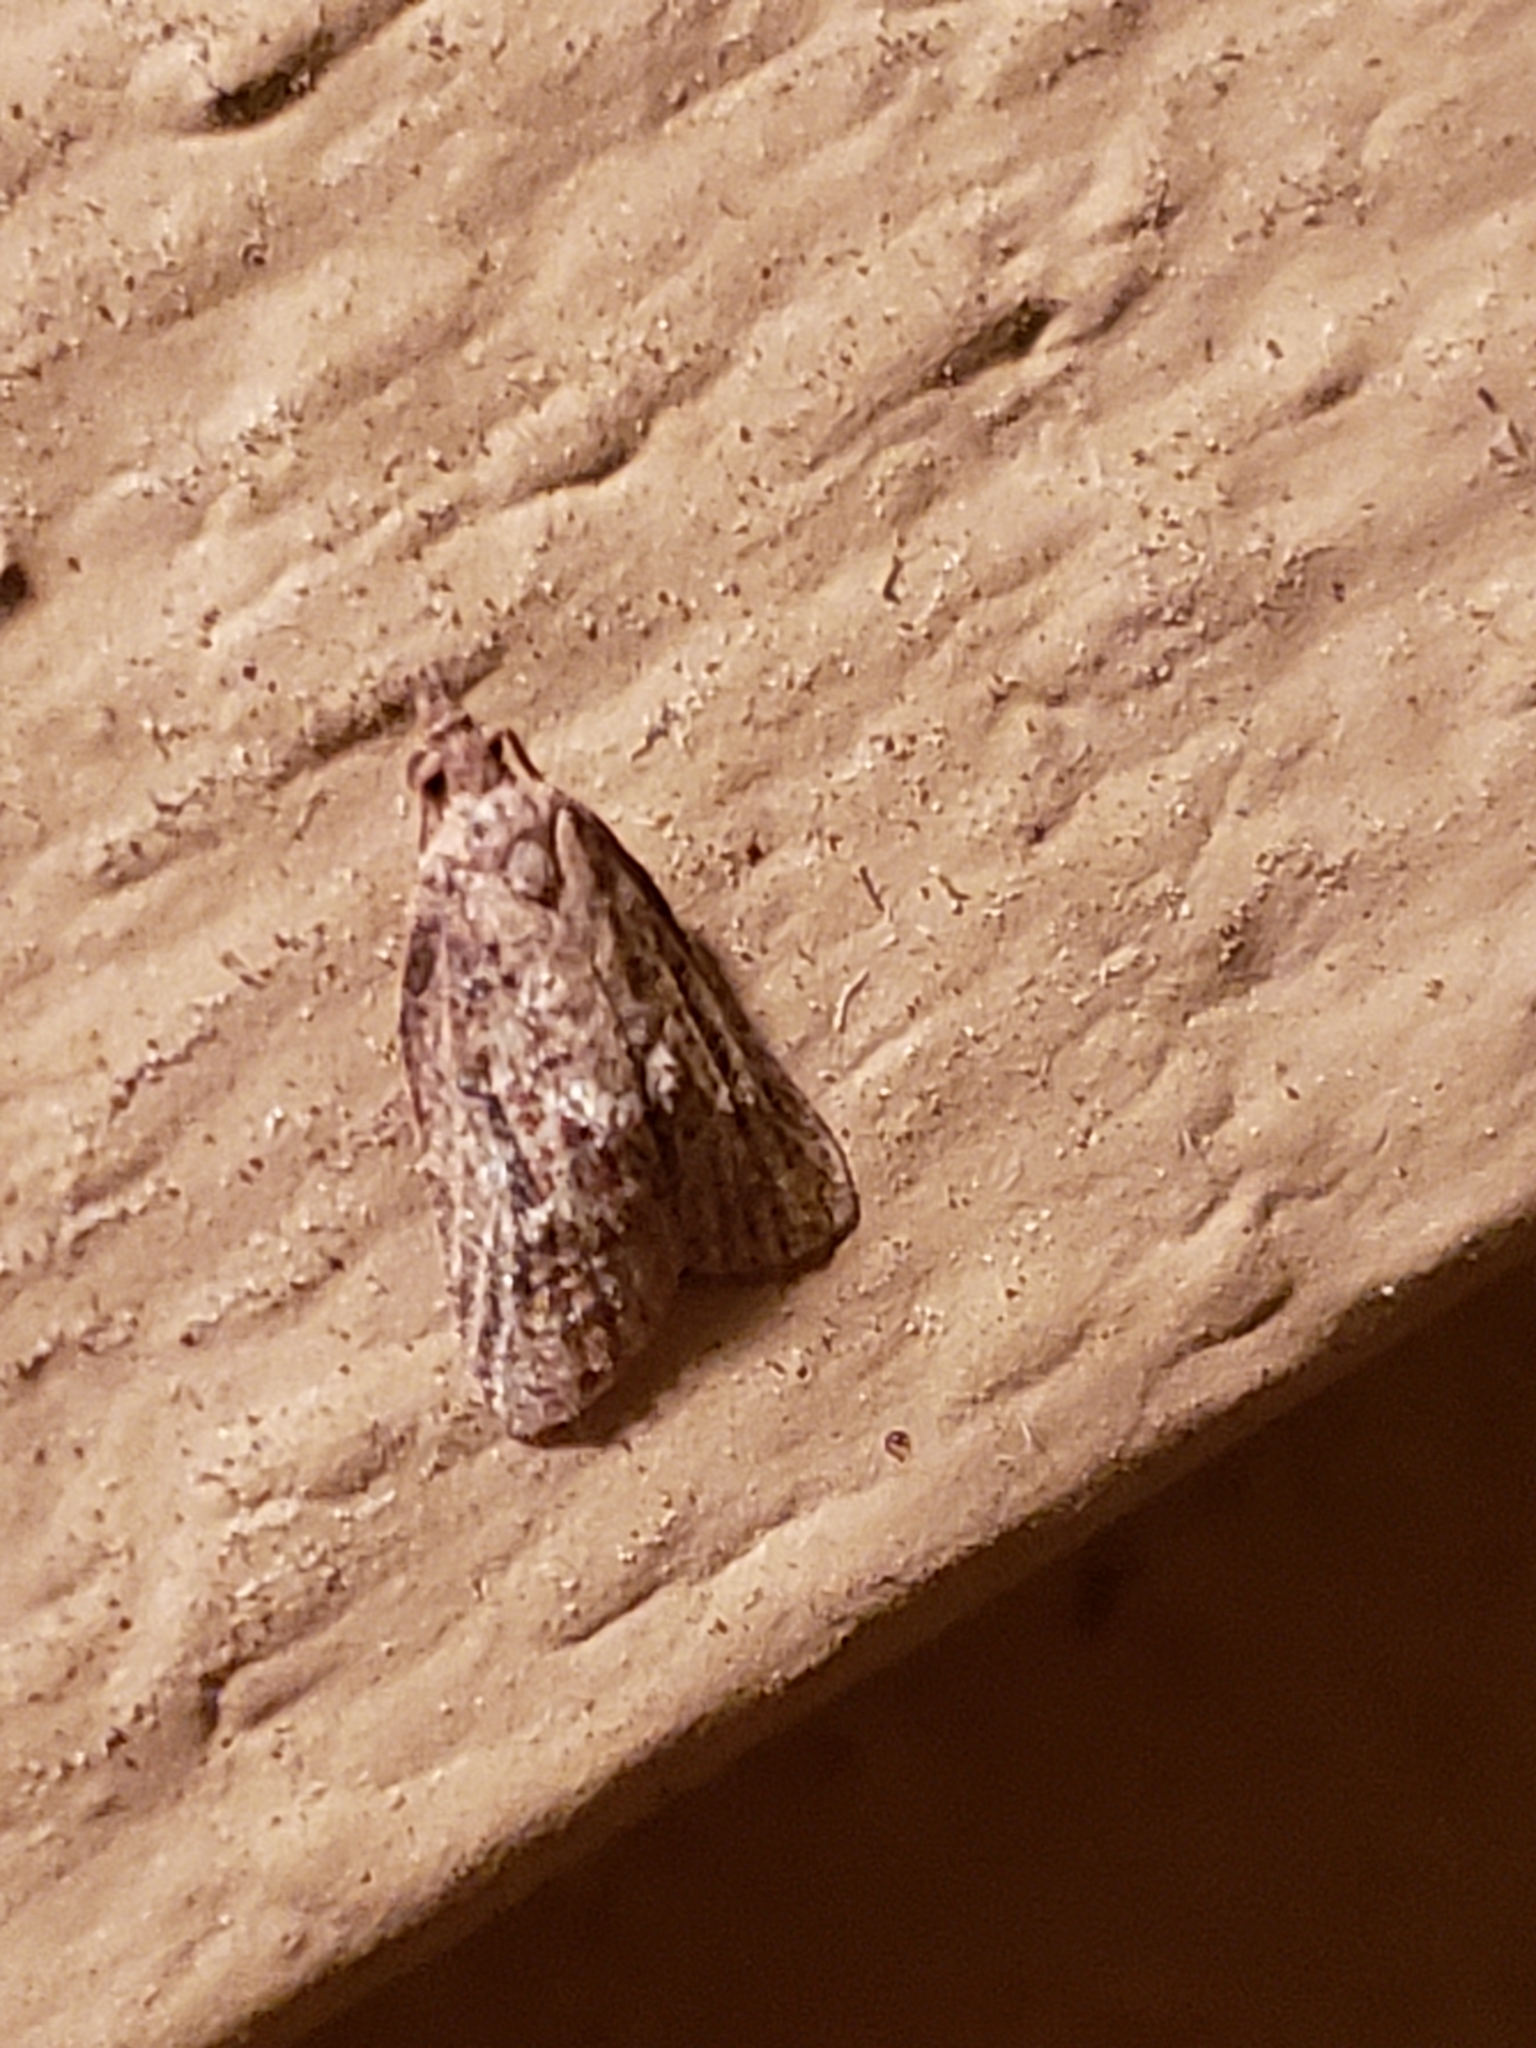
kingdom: Animalia
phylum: Arthropoda
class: Insecta
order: Lepidoptera
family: Tortricidae
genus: Platynota
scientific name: Platynota idaeusalis
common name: Tufted apple bud moth
